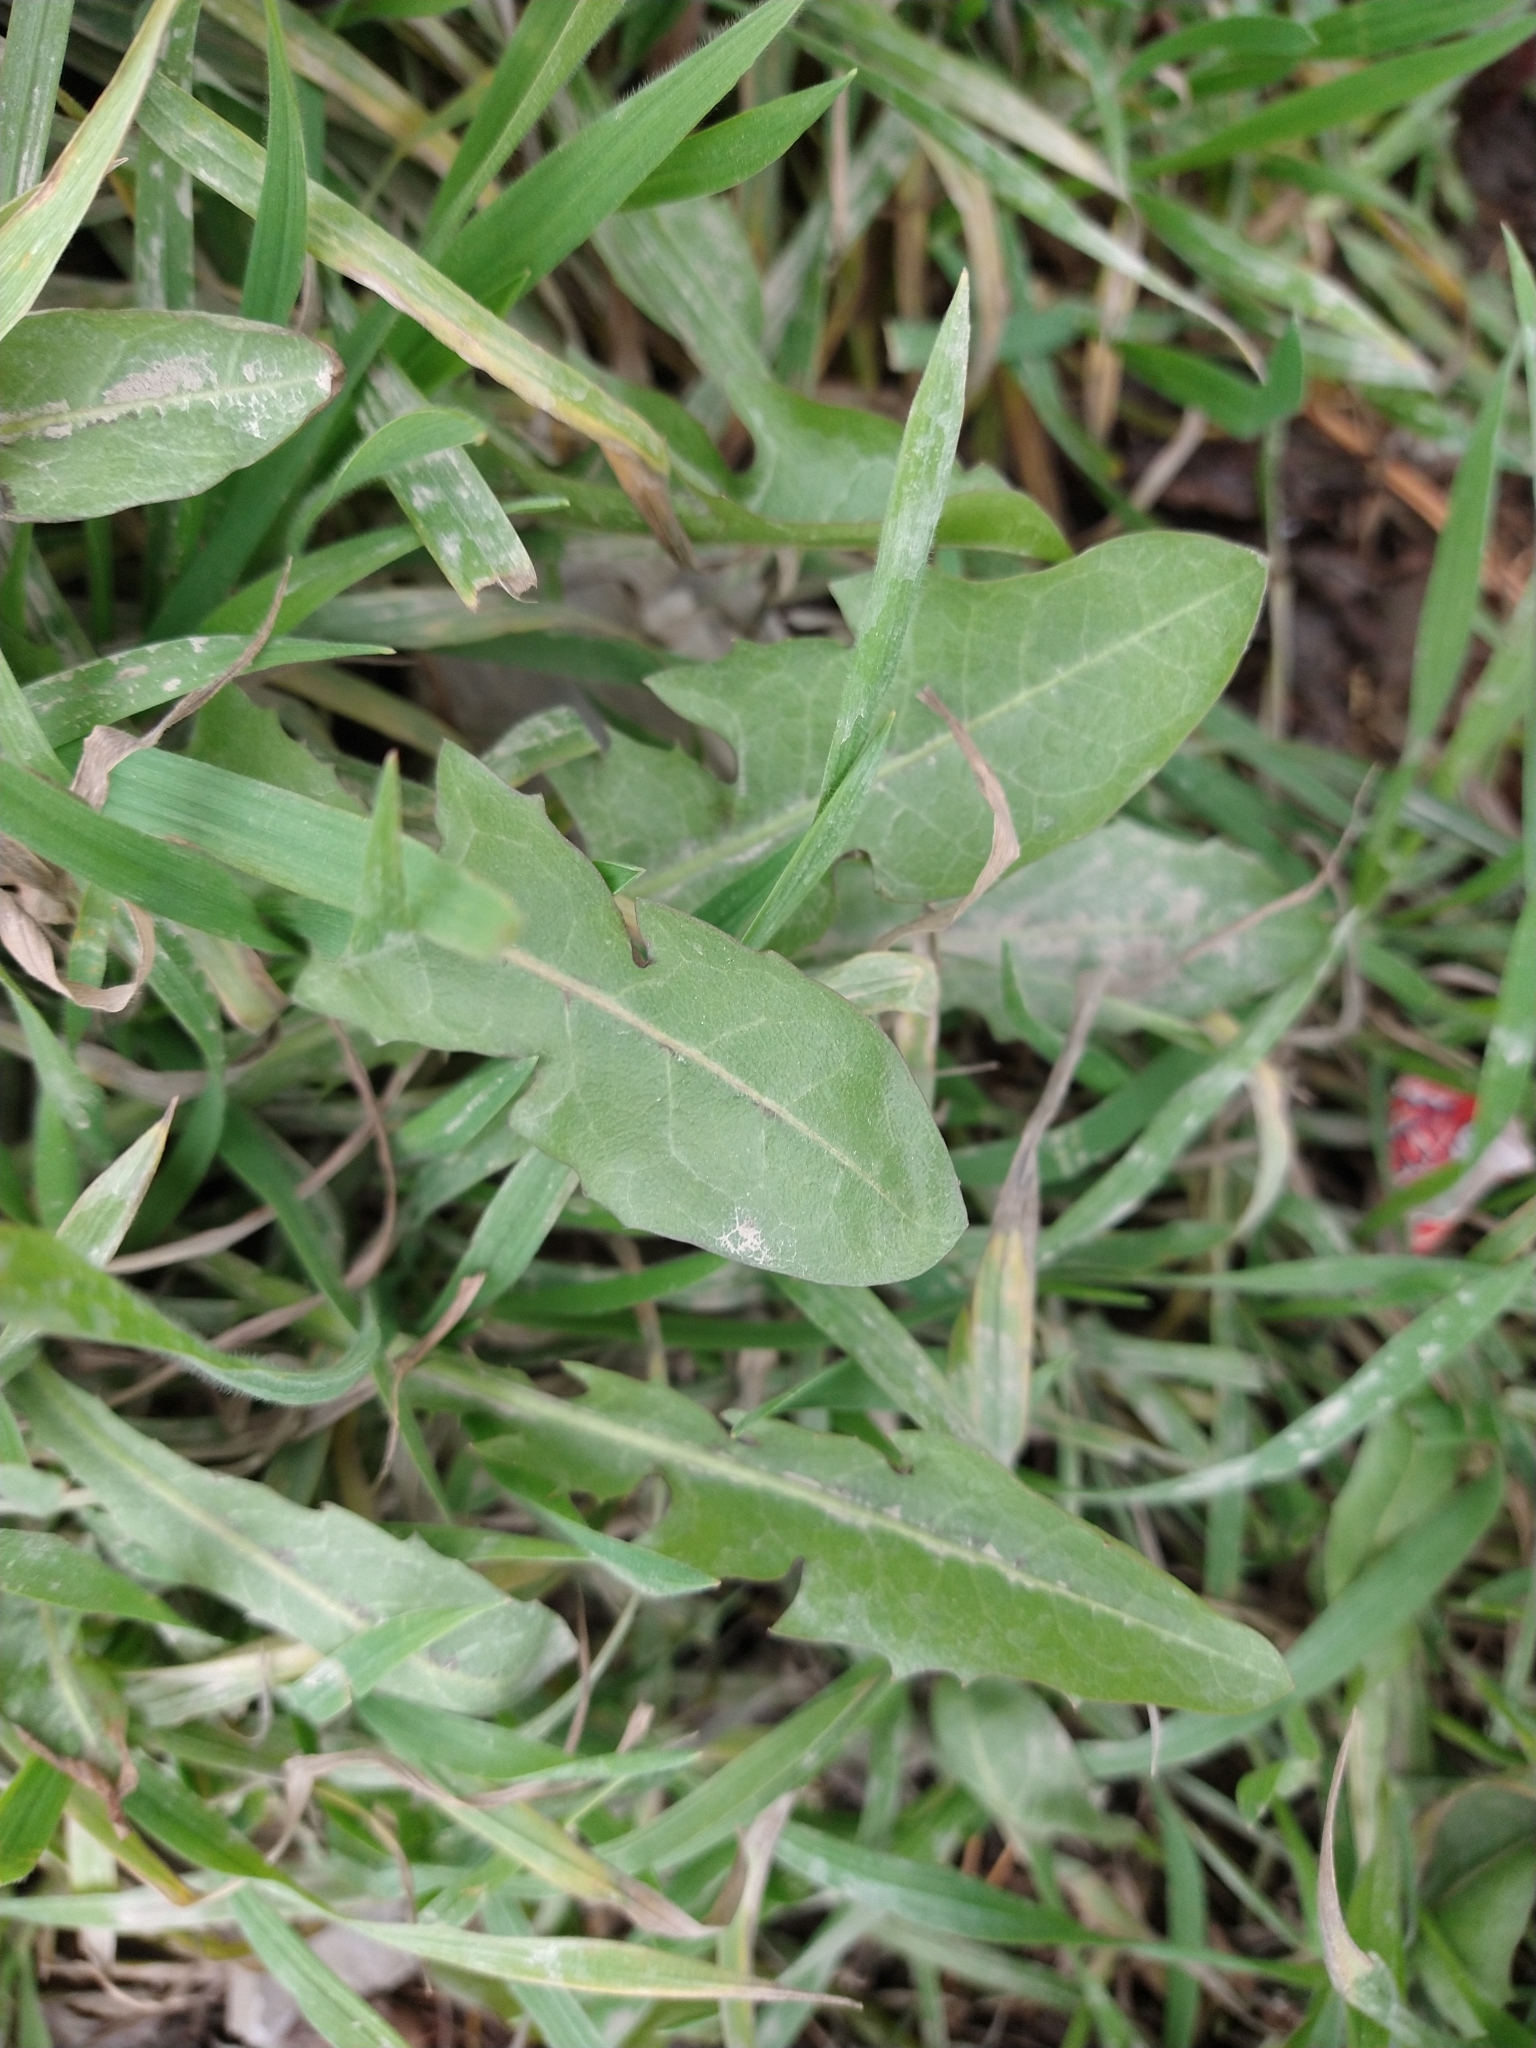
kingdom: Plantae
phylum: Tracheophyta
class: Magnoliopsida
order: Asterales
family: Asteraceae
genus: Taraxacum
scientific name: Taraxacum officinale
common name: Common dandelion
